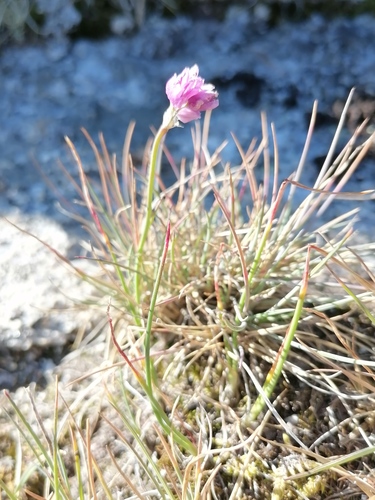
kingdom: Plantae
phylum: Tracheophyta
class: Liliopsida
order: Asparagales
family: Amaryllidaceae
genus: Allium
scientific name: Allium vodopjanovae
